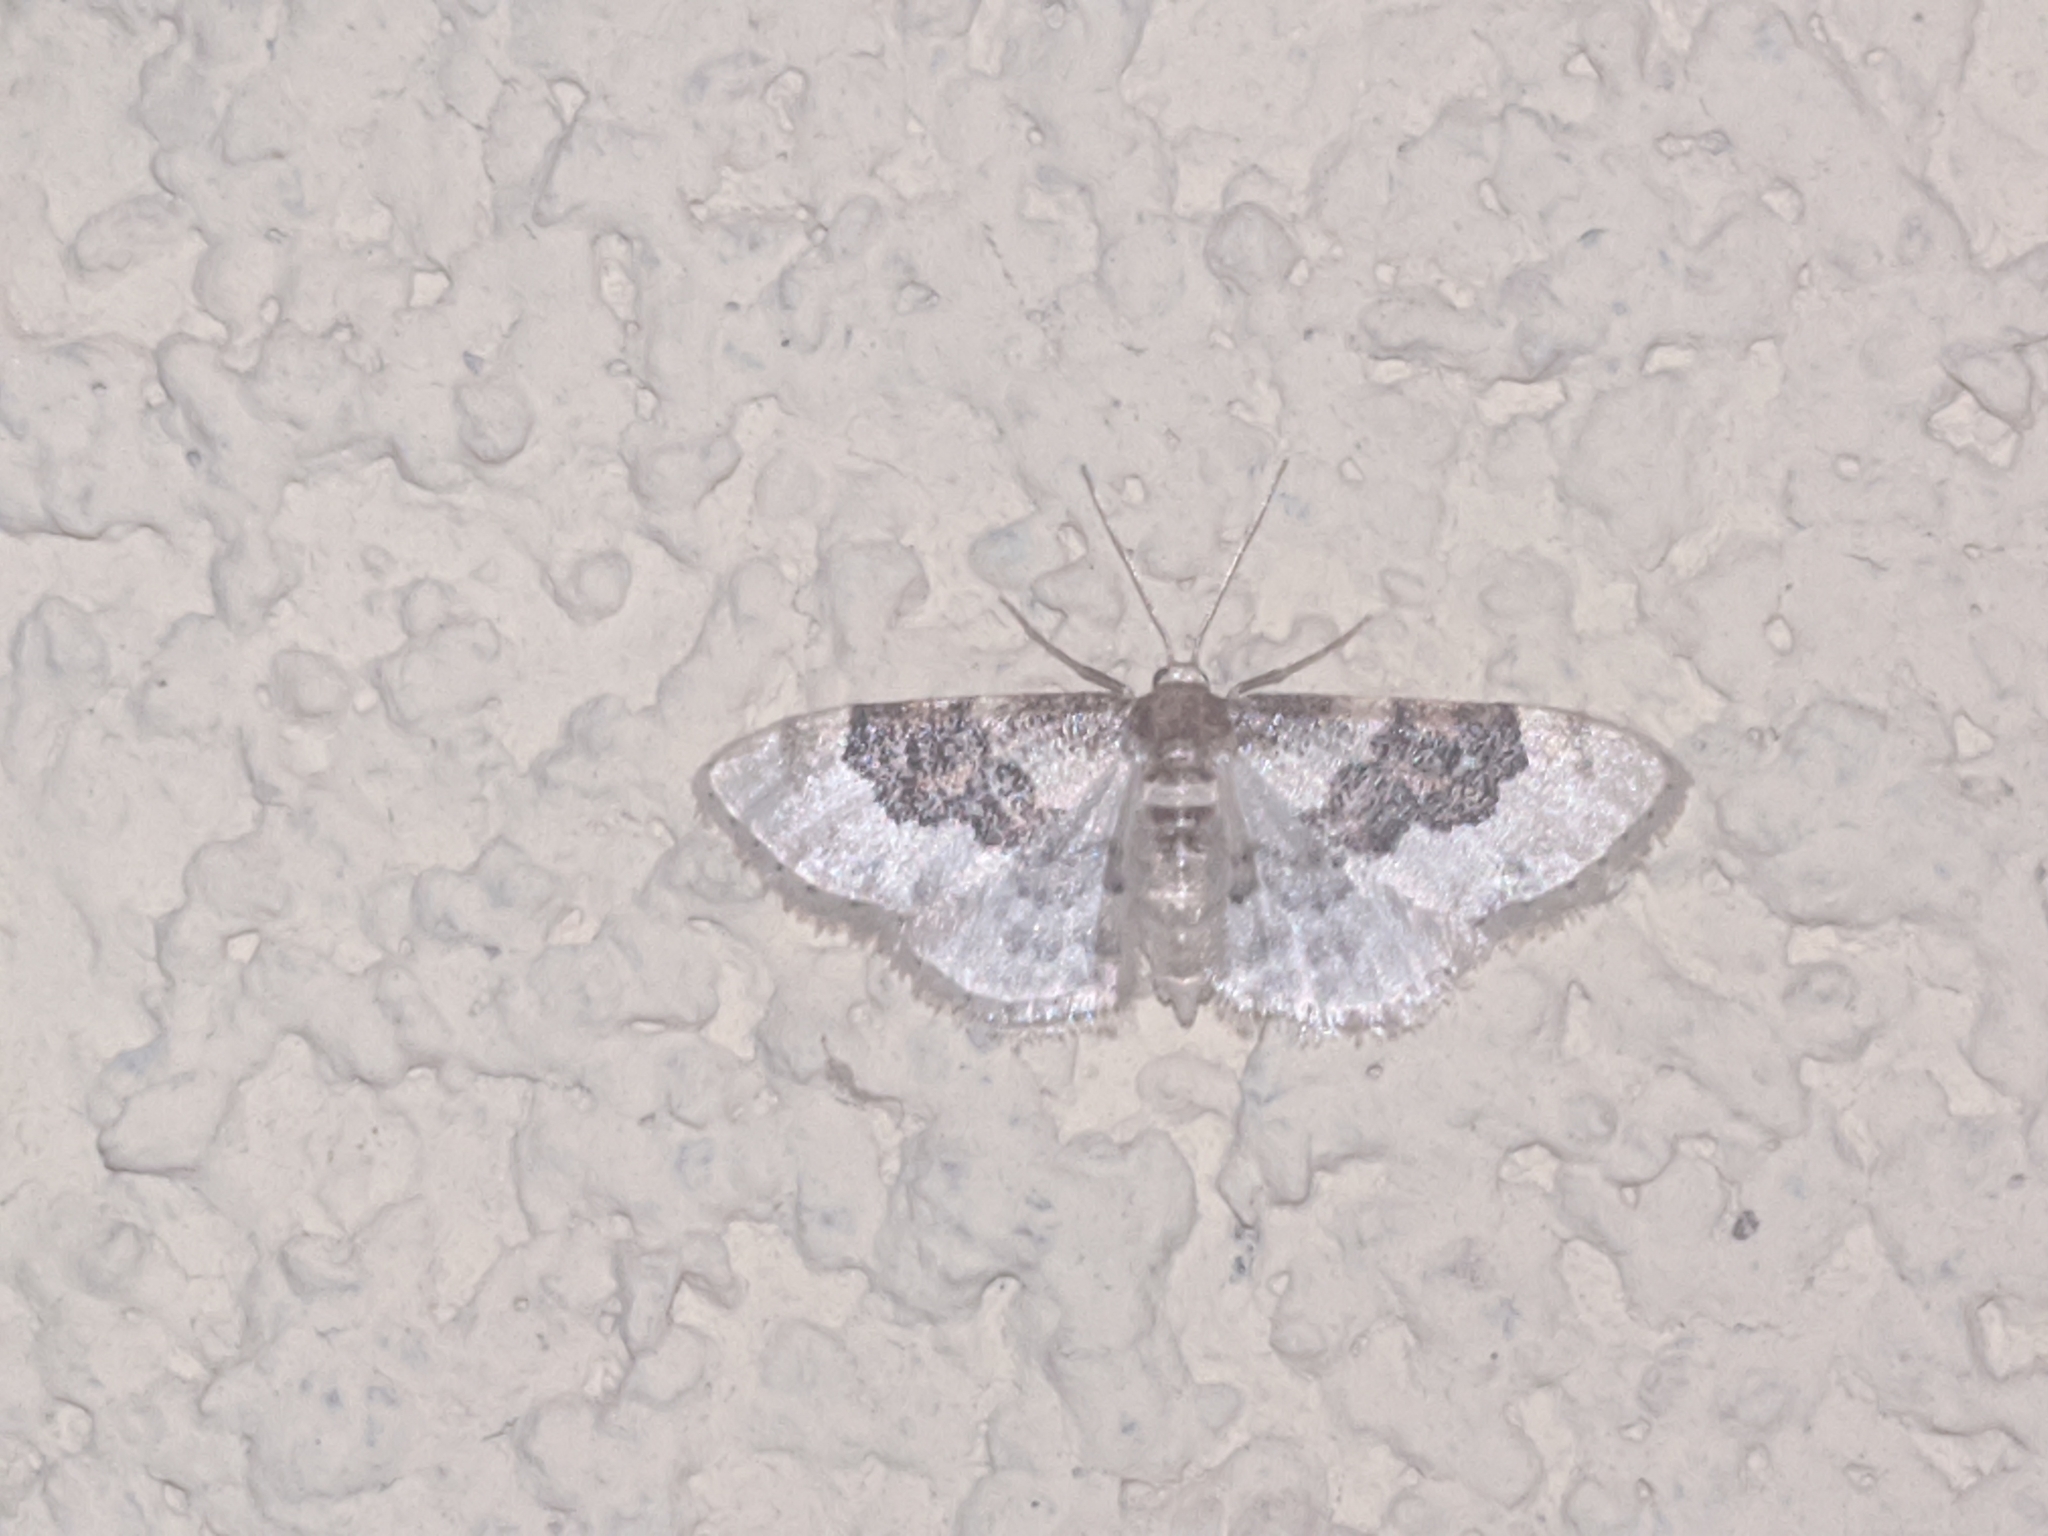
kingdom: Animalia
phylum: Arthropoda
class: Insecta
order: Lepidoptera
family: Geometridae
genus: Idaea
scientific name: Idaea rusticata
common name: Least carpet
